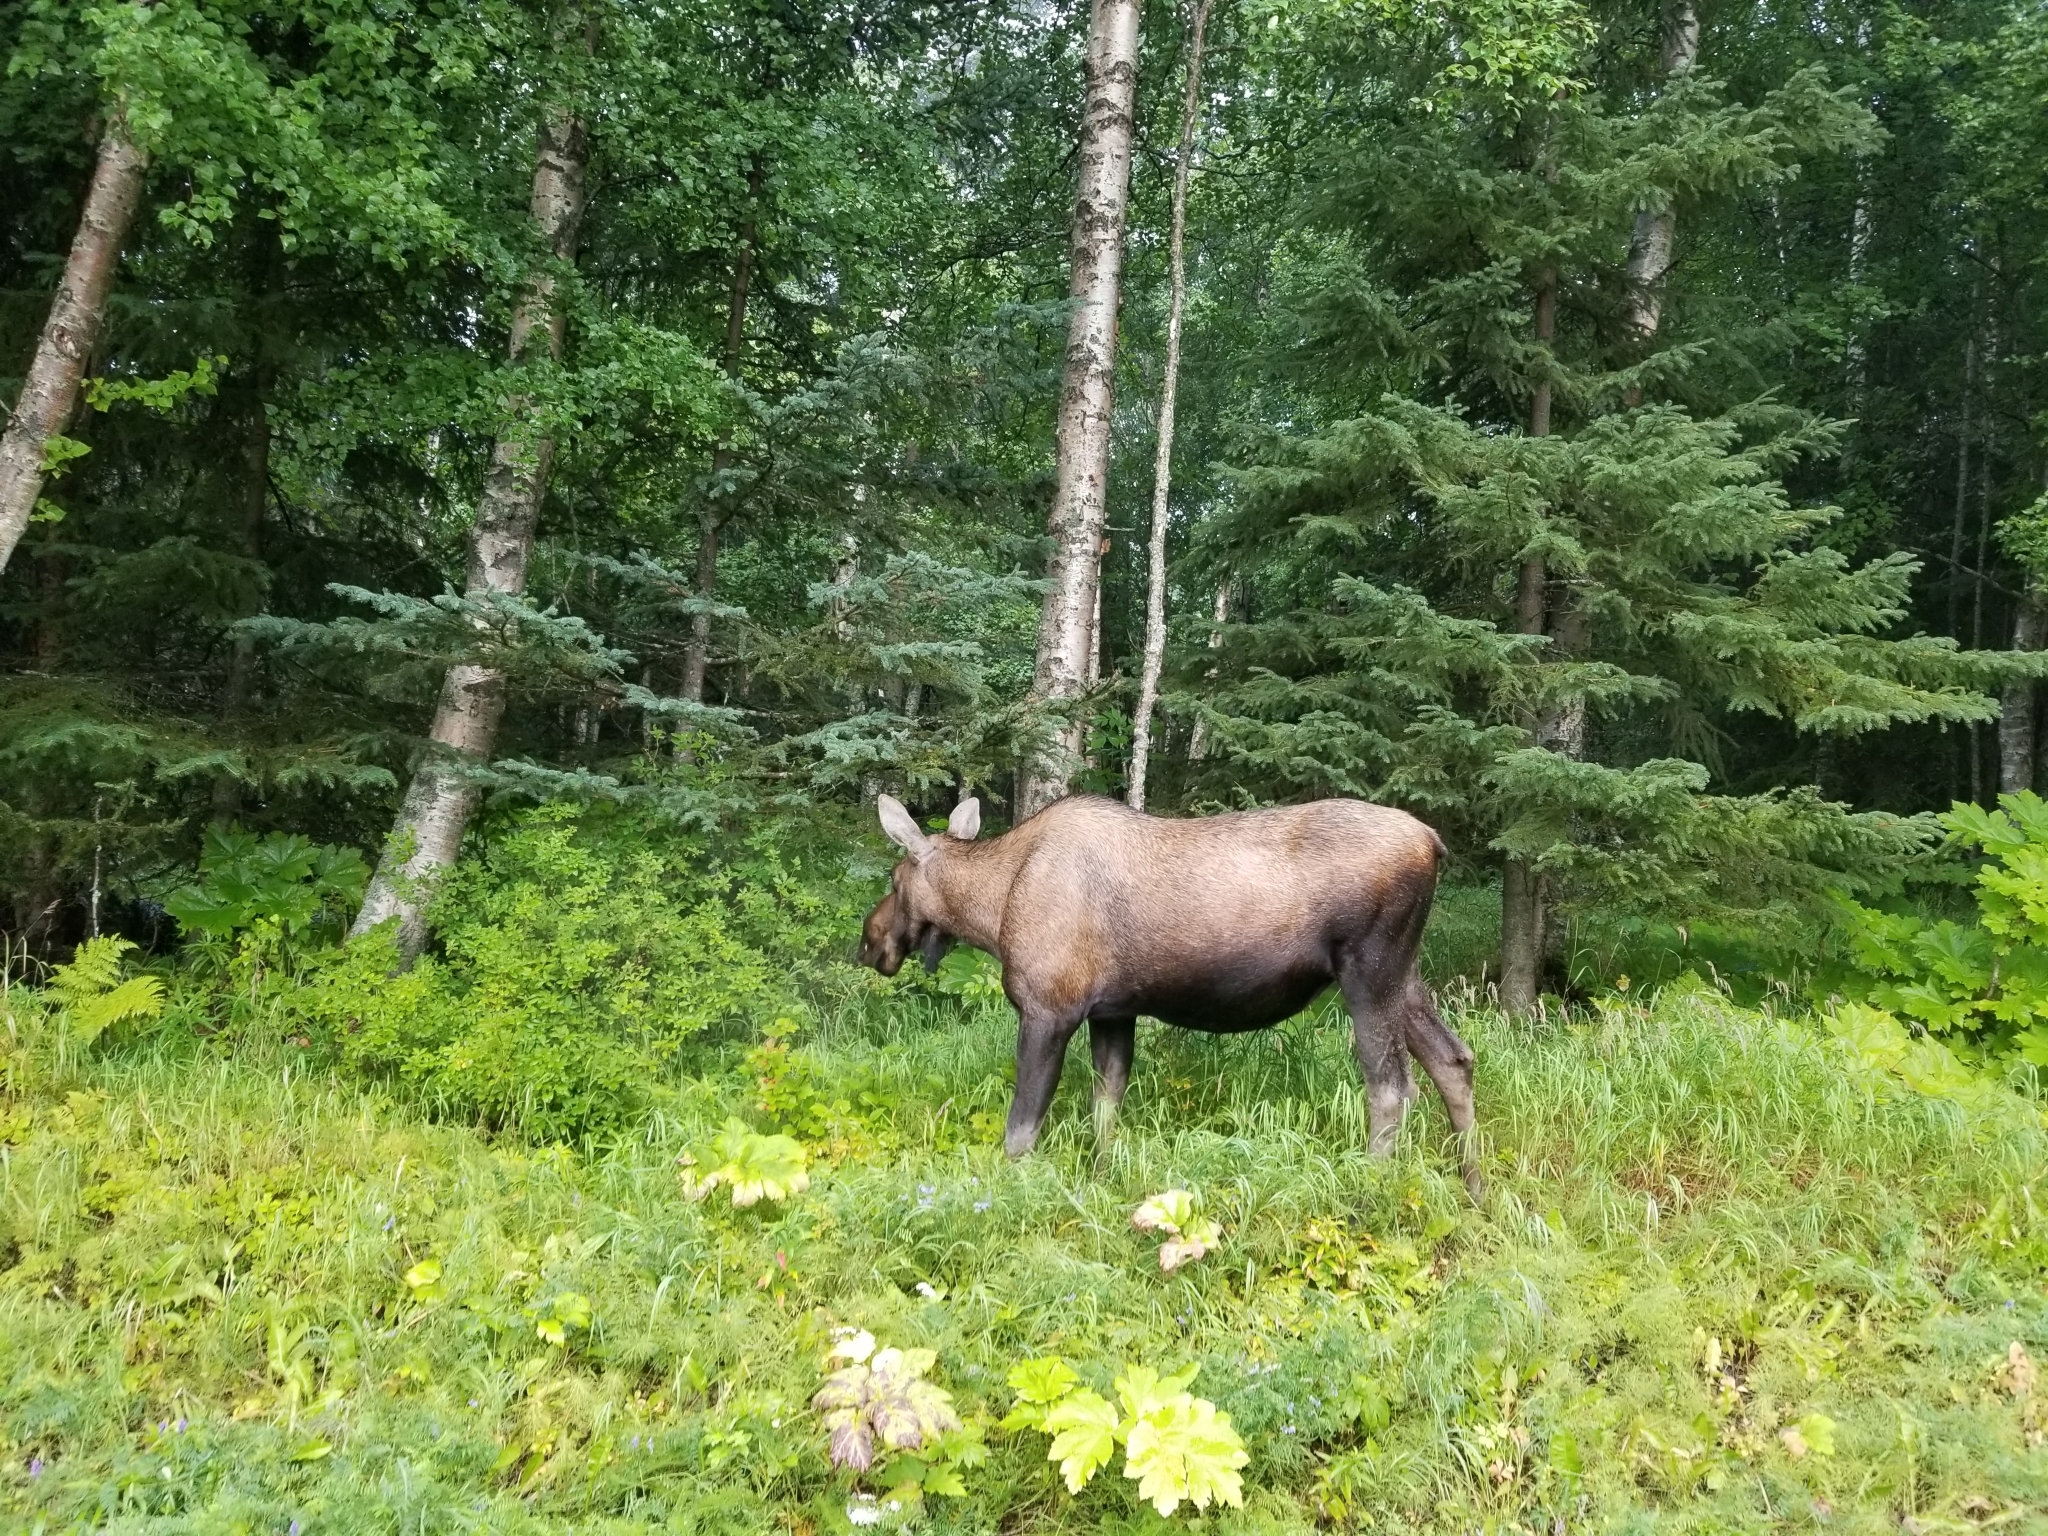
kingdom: Animalia
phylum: Chordata
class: Mammalia
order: Artiodactyla
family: Cervidae
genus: Alces
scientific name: Alces alces
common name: Moose
